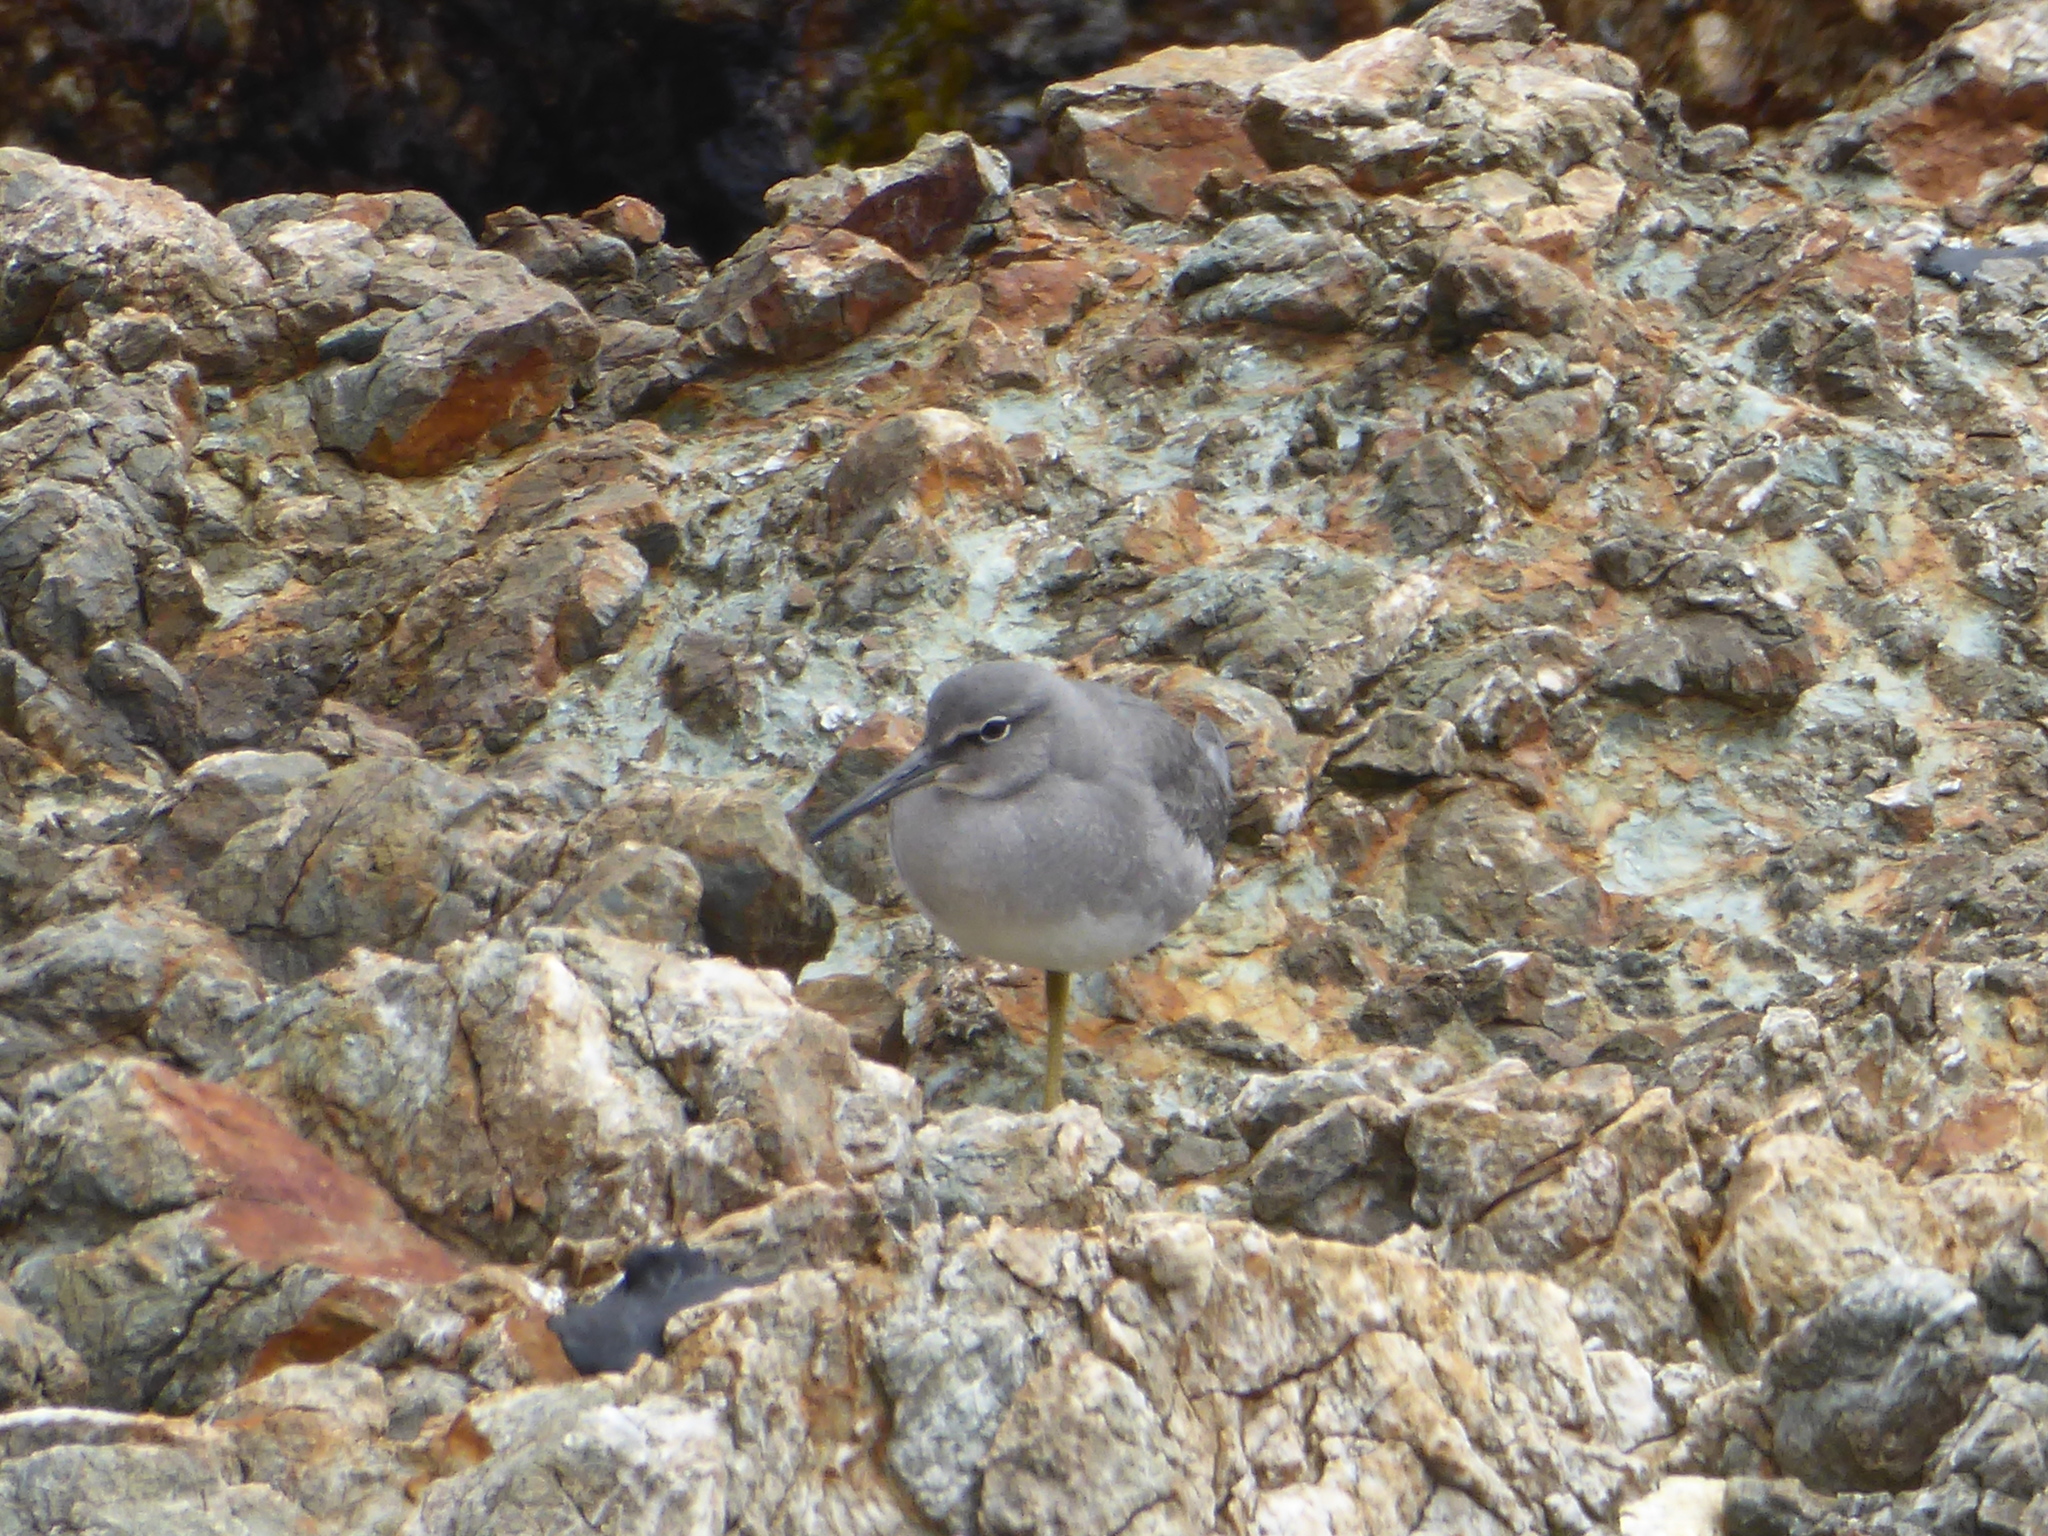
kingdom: Animalia
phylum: Chordata
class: Aves
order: Charadriiformes
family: Scolopacidae
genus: Tringa
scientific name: Tringa incana
